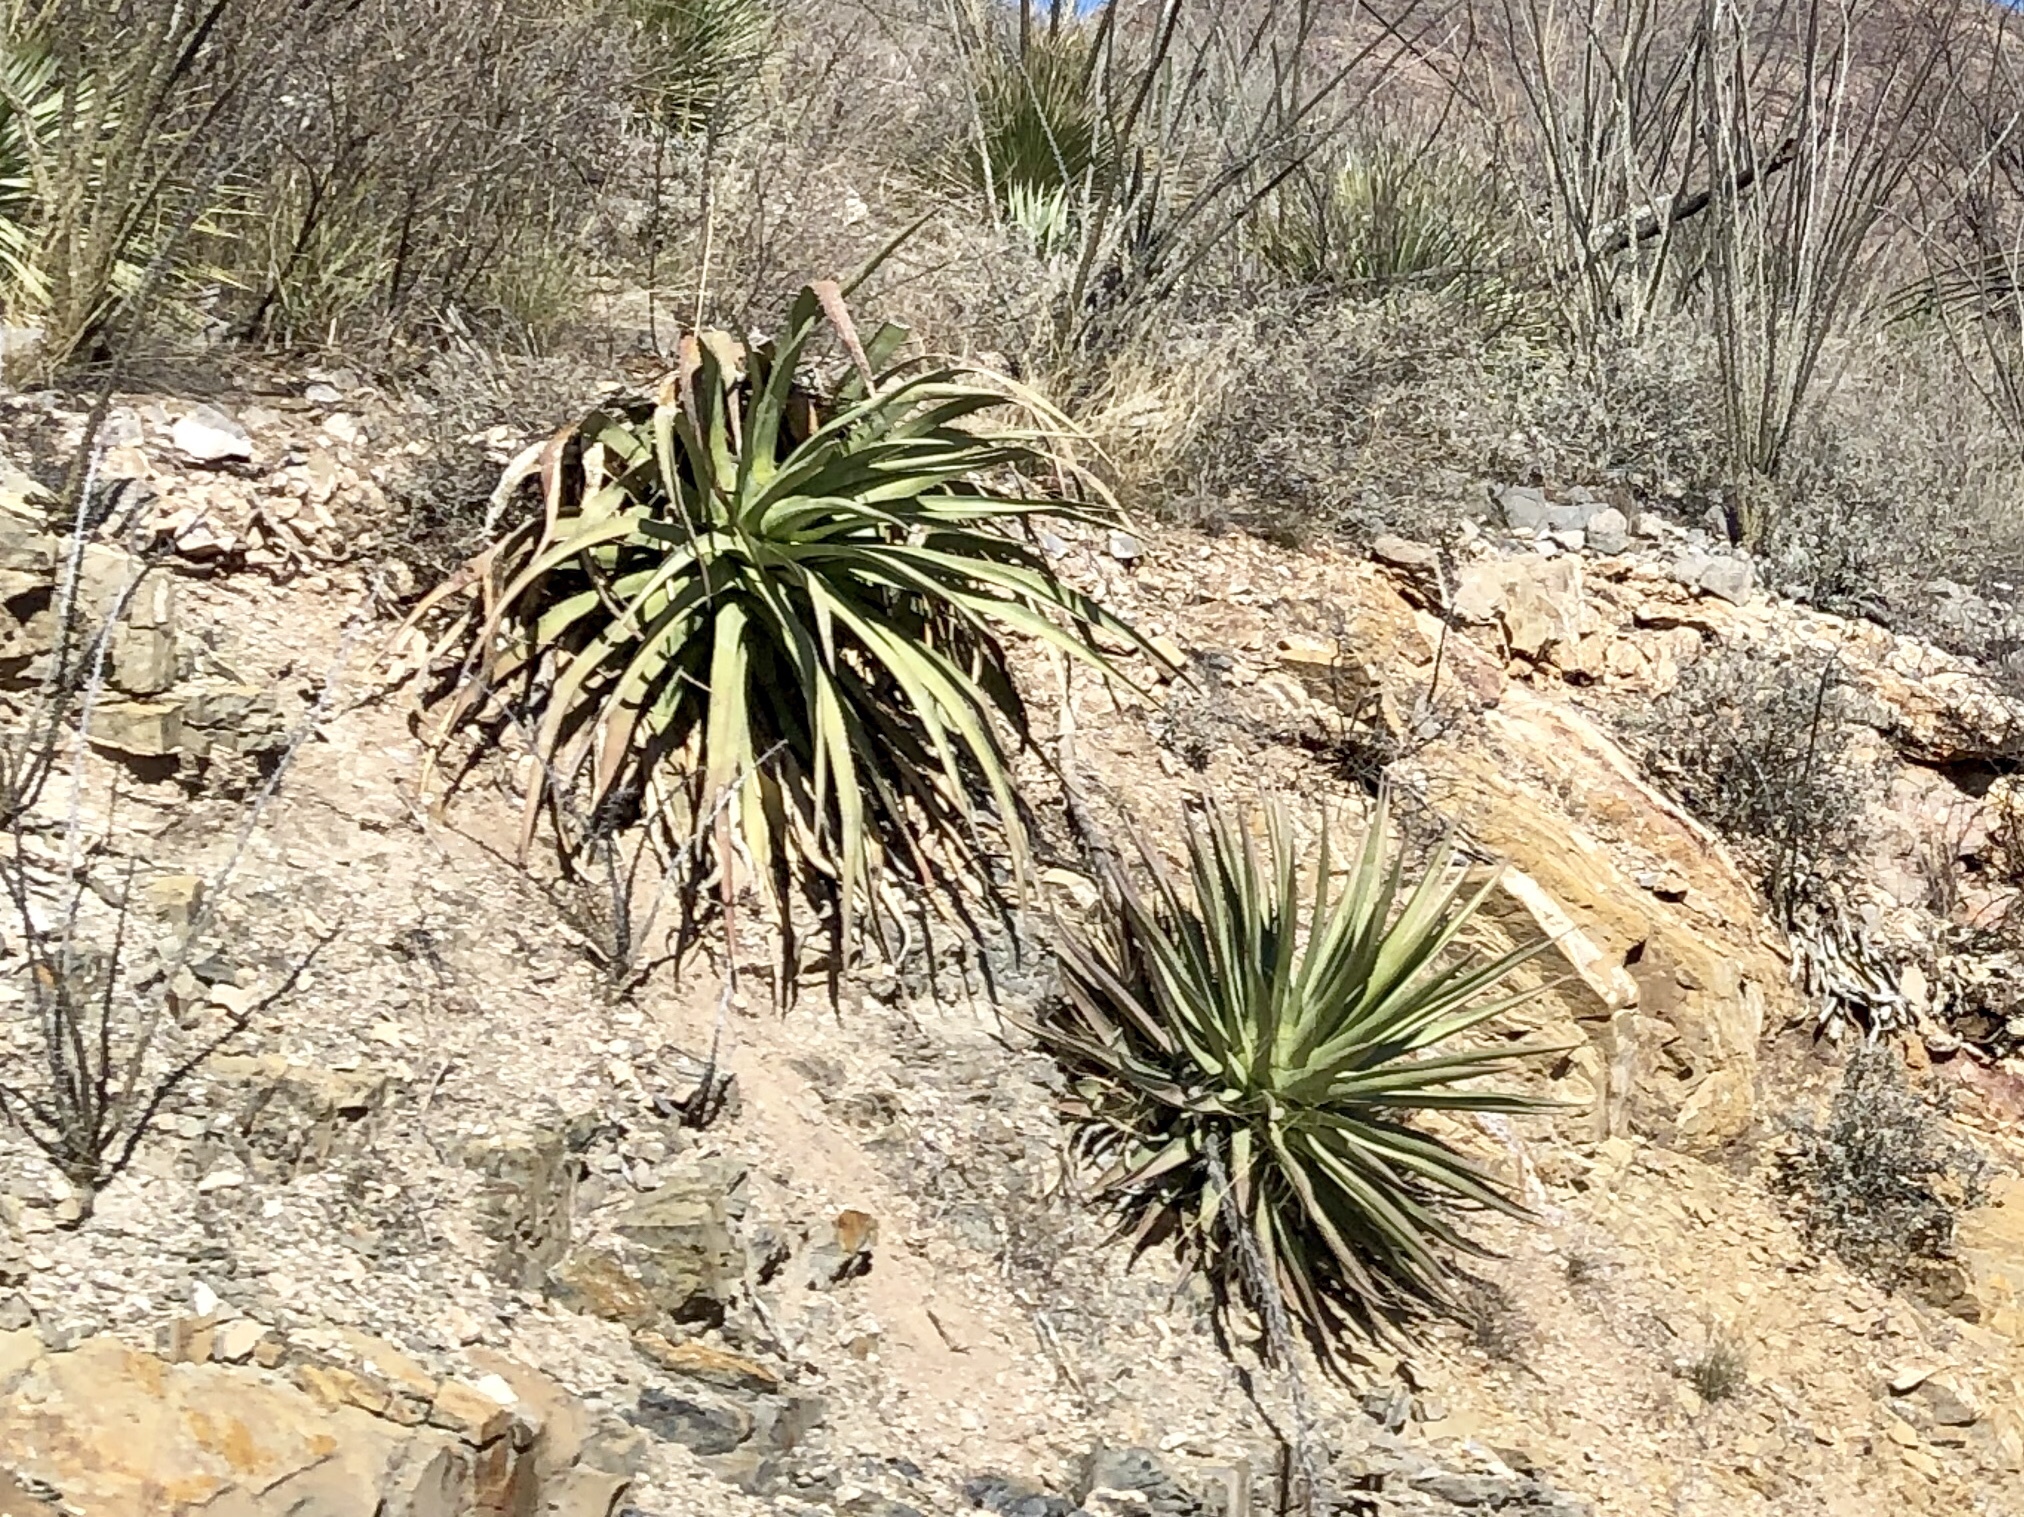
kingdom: Plantae
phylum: Tracheophyta
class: Liliopsida
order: Asparagales
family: Asparagaceae
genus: Agave
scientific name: Agave palmeri
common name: Palmer agave
